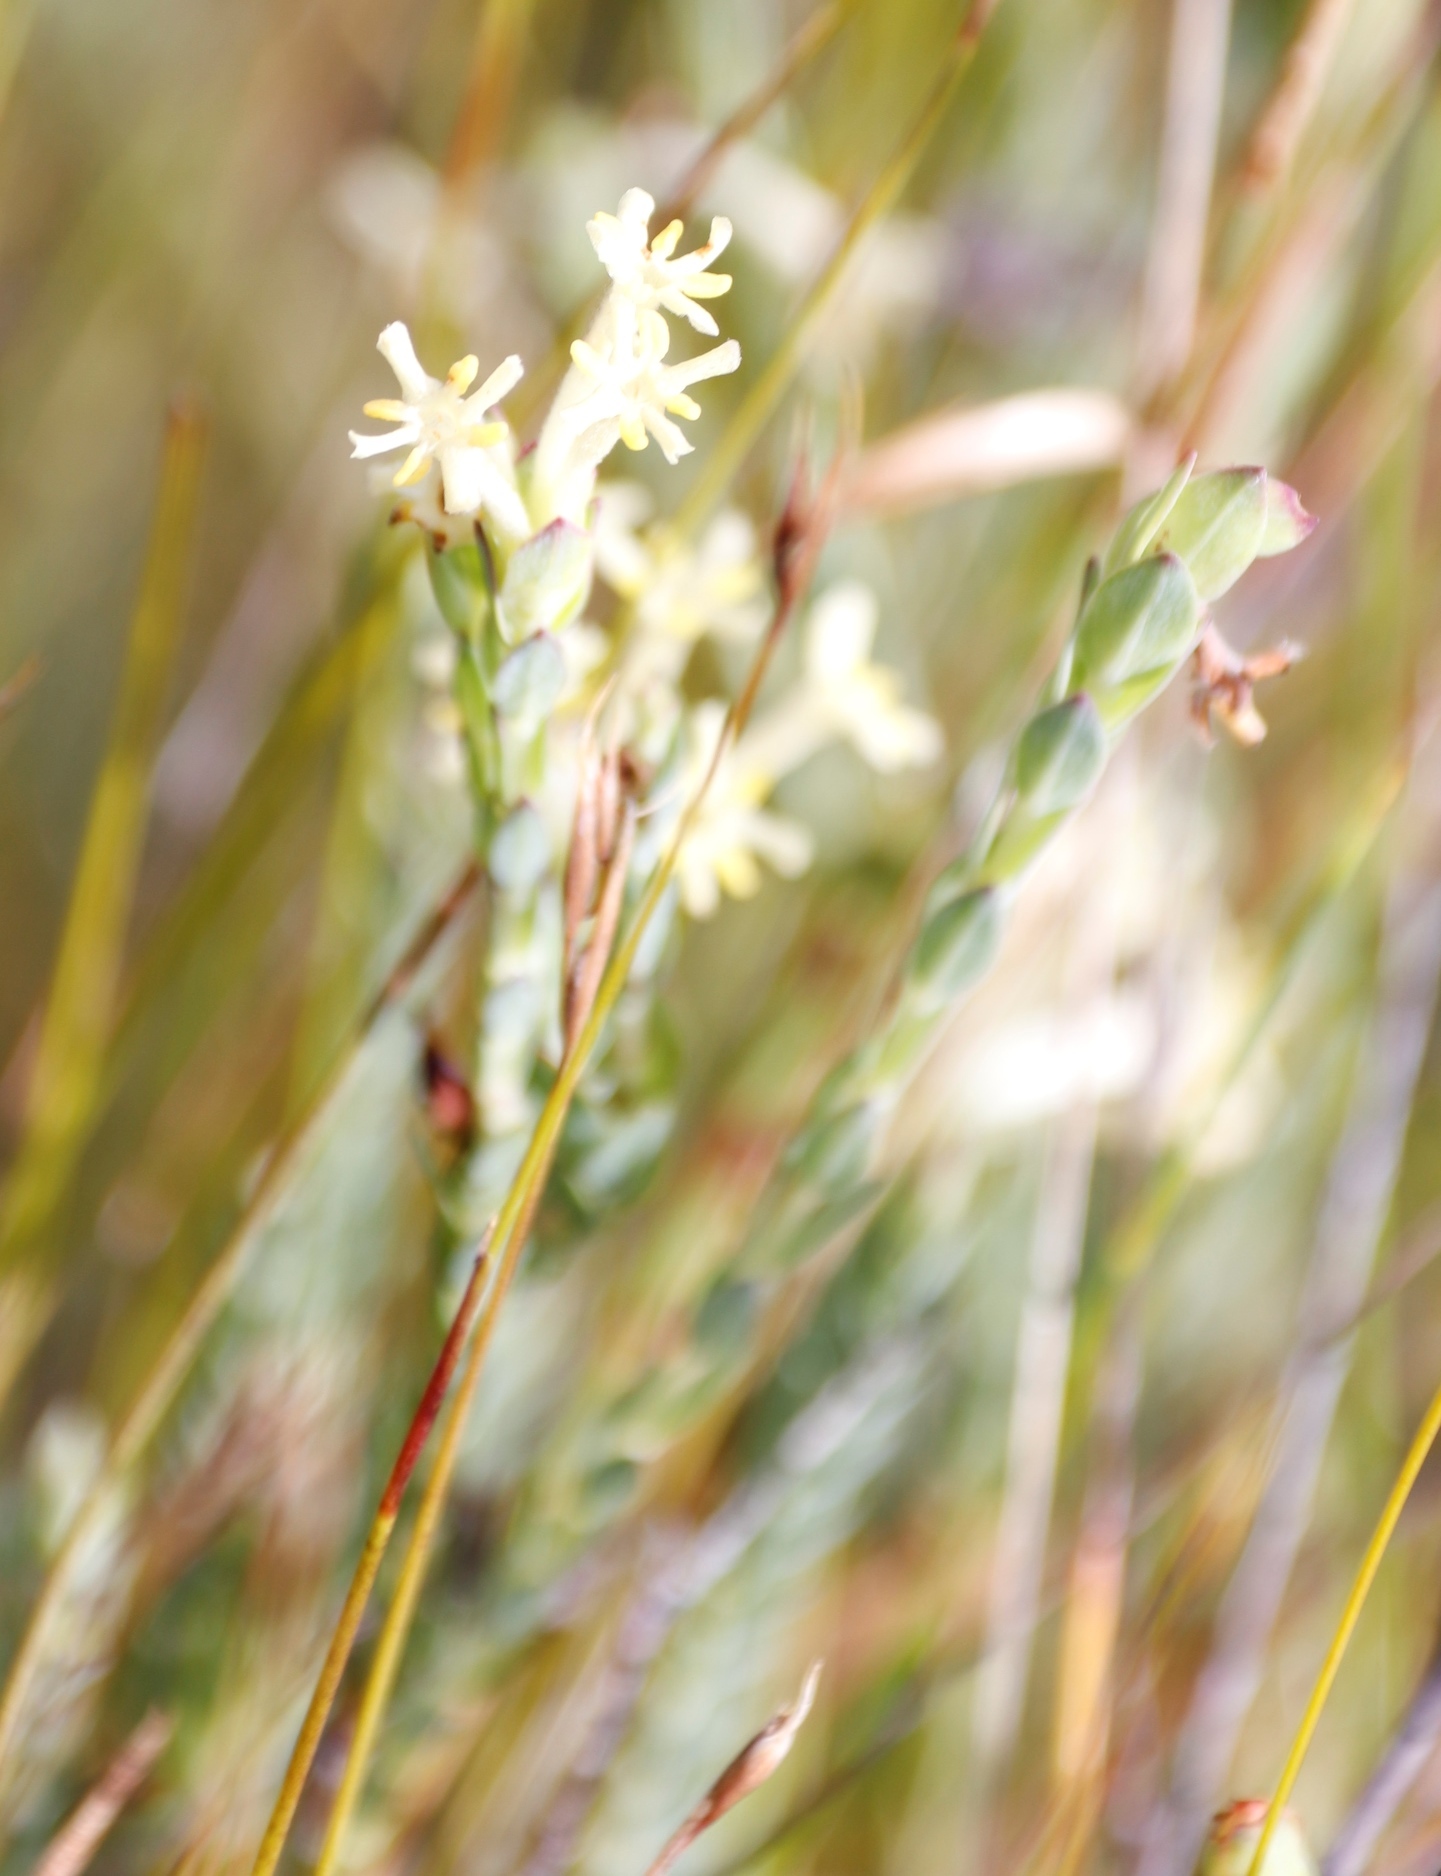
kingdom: Plantae
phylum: Tracheophyta
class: Magnoliopsida
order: Malvales
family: Thymelaeaceae
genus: Gnidia
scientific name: Gnidia oppositifolia
